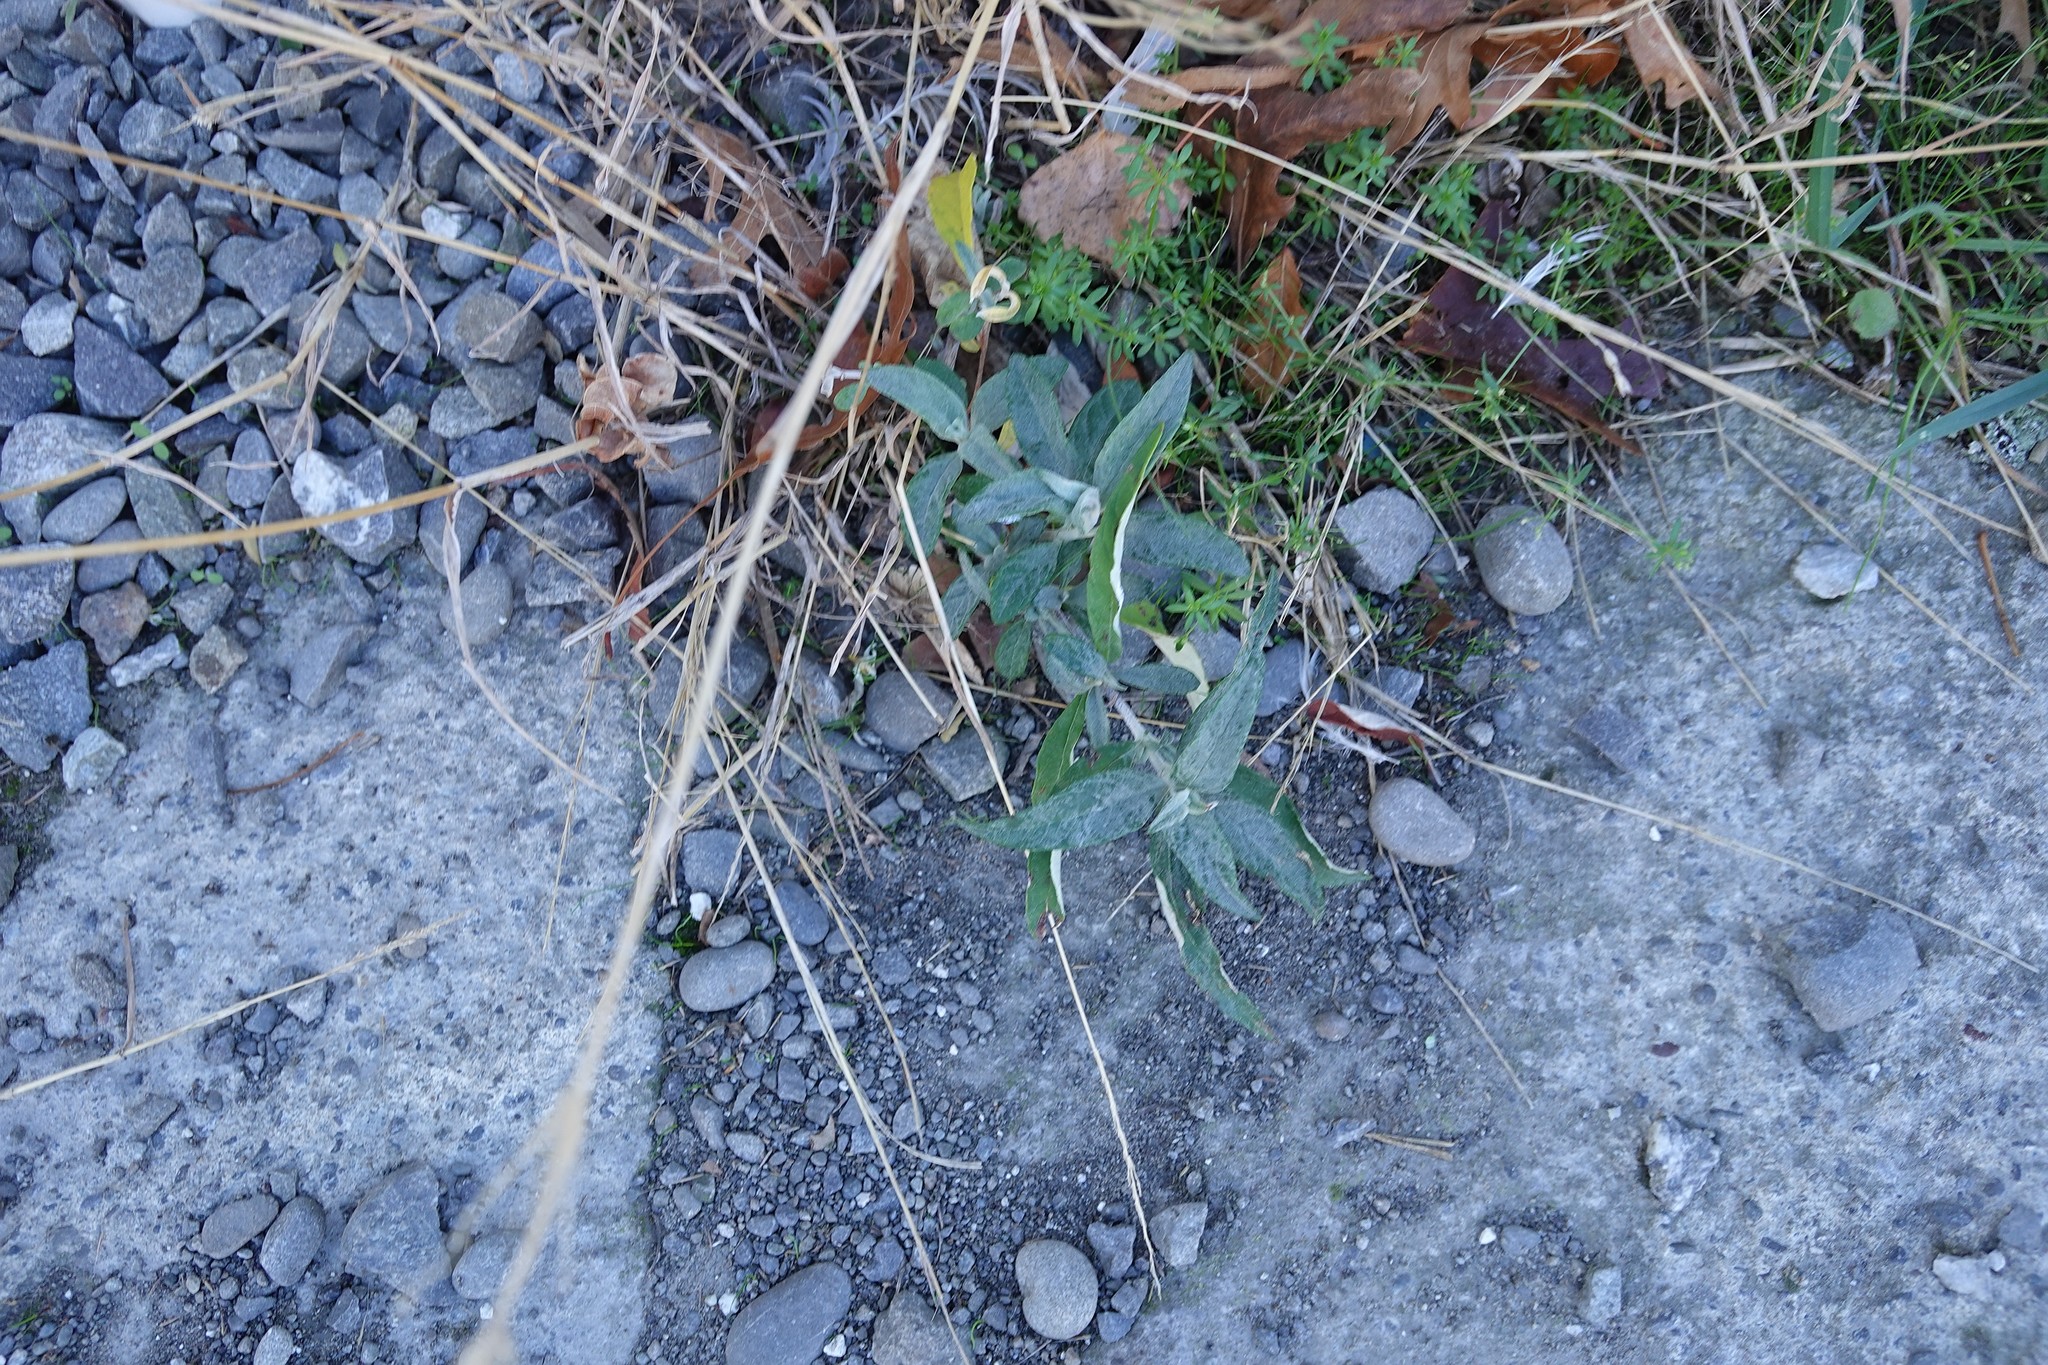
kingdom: Plantae
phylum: Tracheophyta
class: Magnoliopsida
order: Lamiales
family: Scrophulariaceae
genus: Buddleja
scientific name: Buddleja davidii
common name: Butterfly-bush
